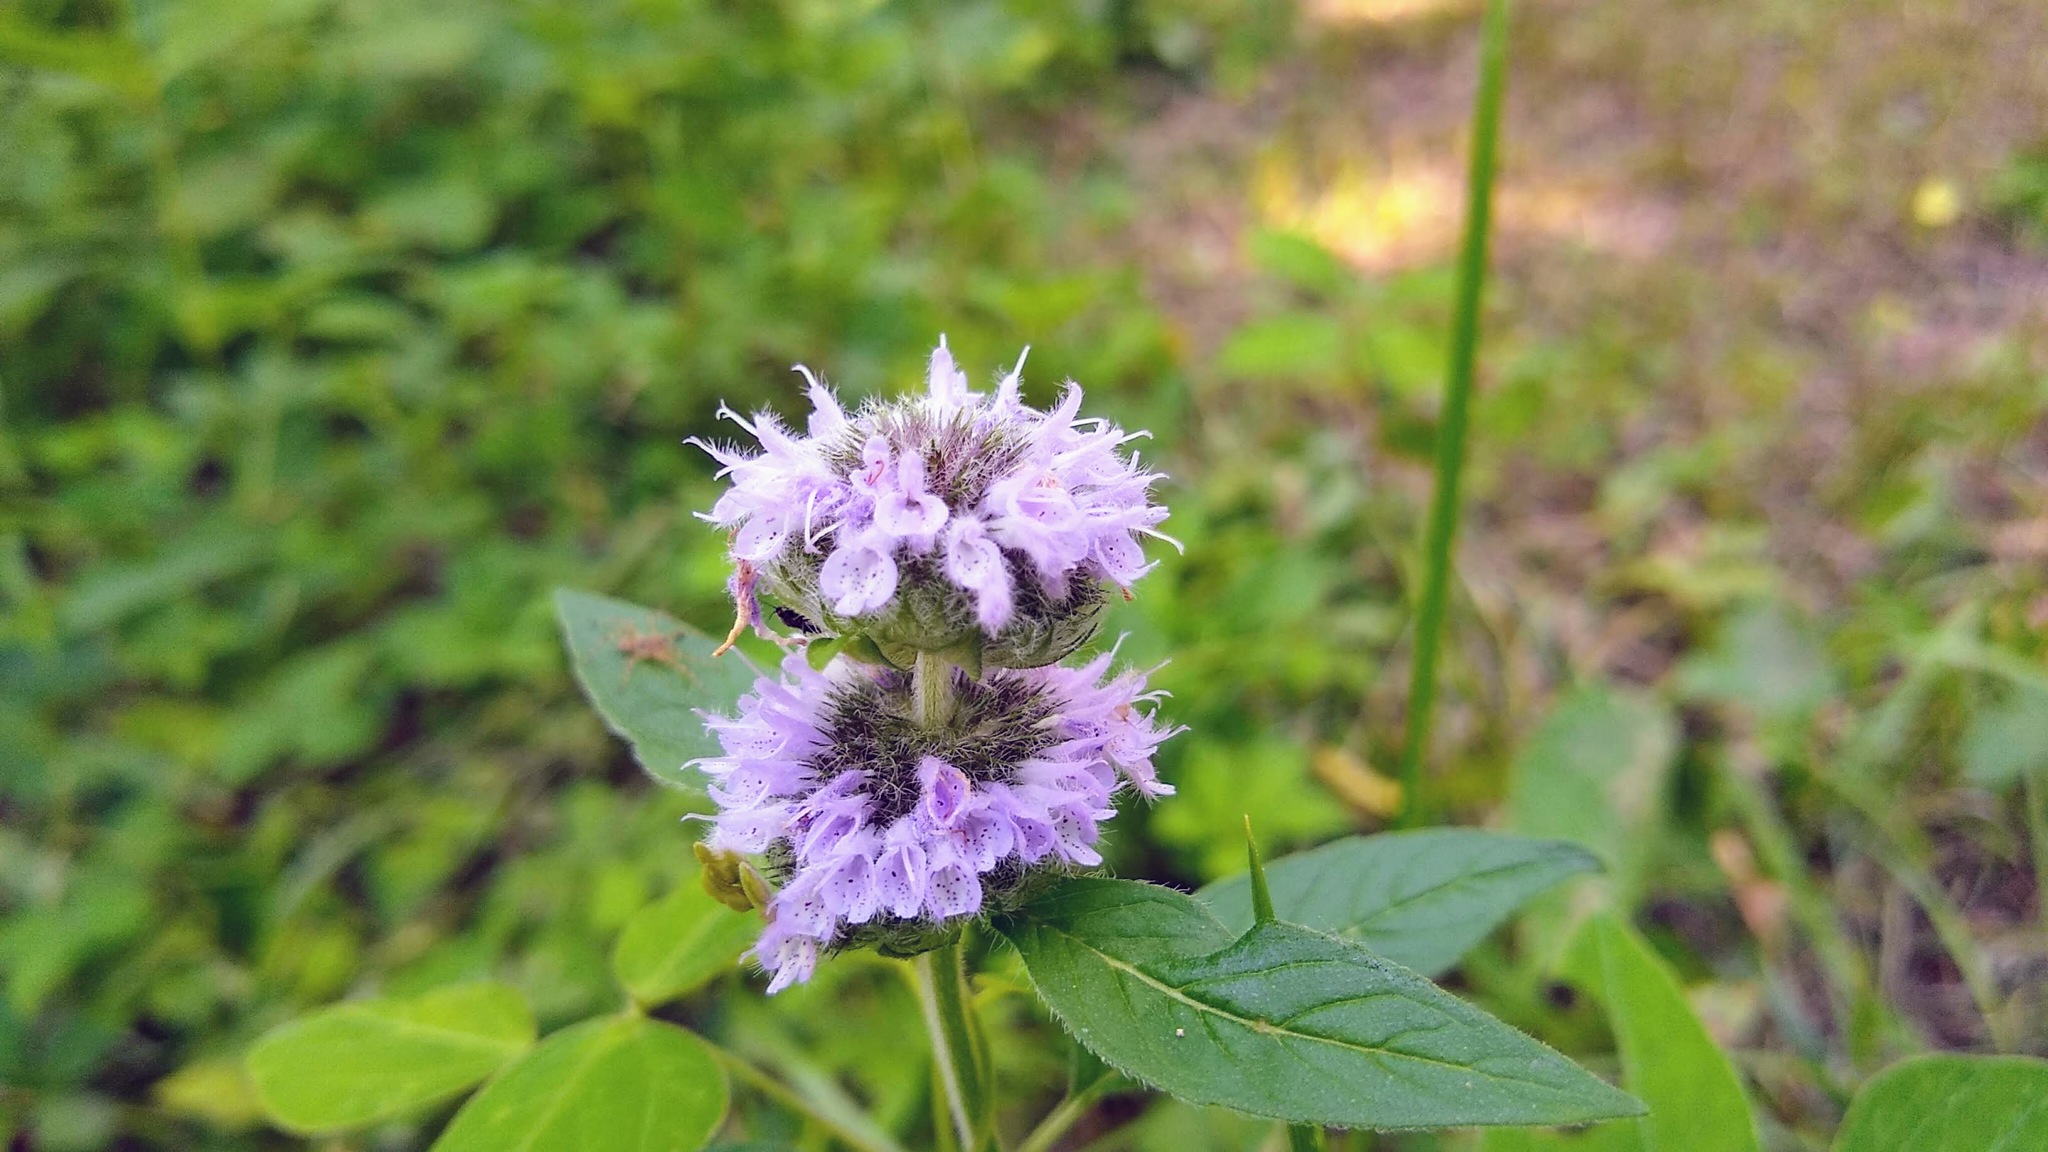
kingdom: Plantae
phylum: Tracheophyta
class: Magnoliopsida
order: Lamiales
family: Lamiaceae
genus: Blephilia
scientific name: Blephilia ciliata
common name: Downy blephilia
